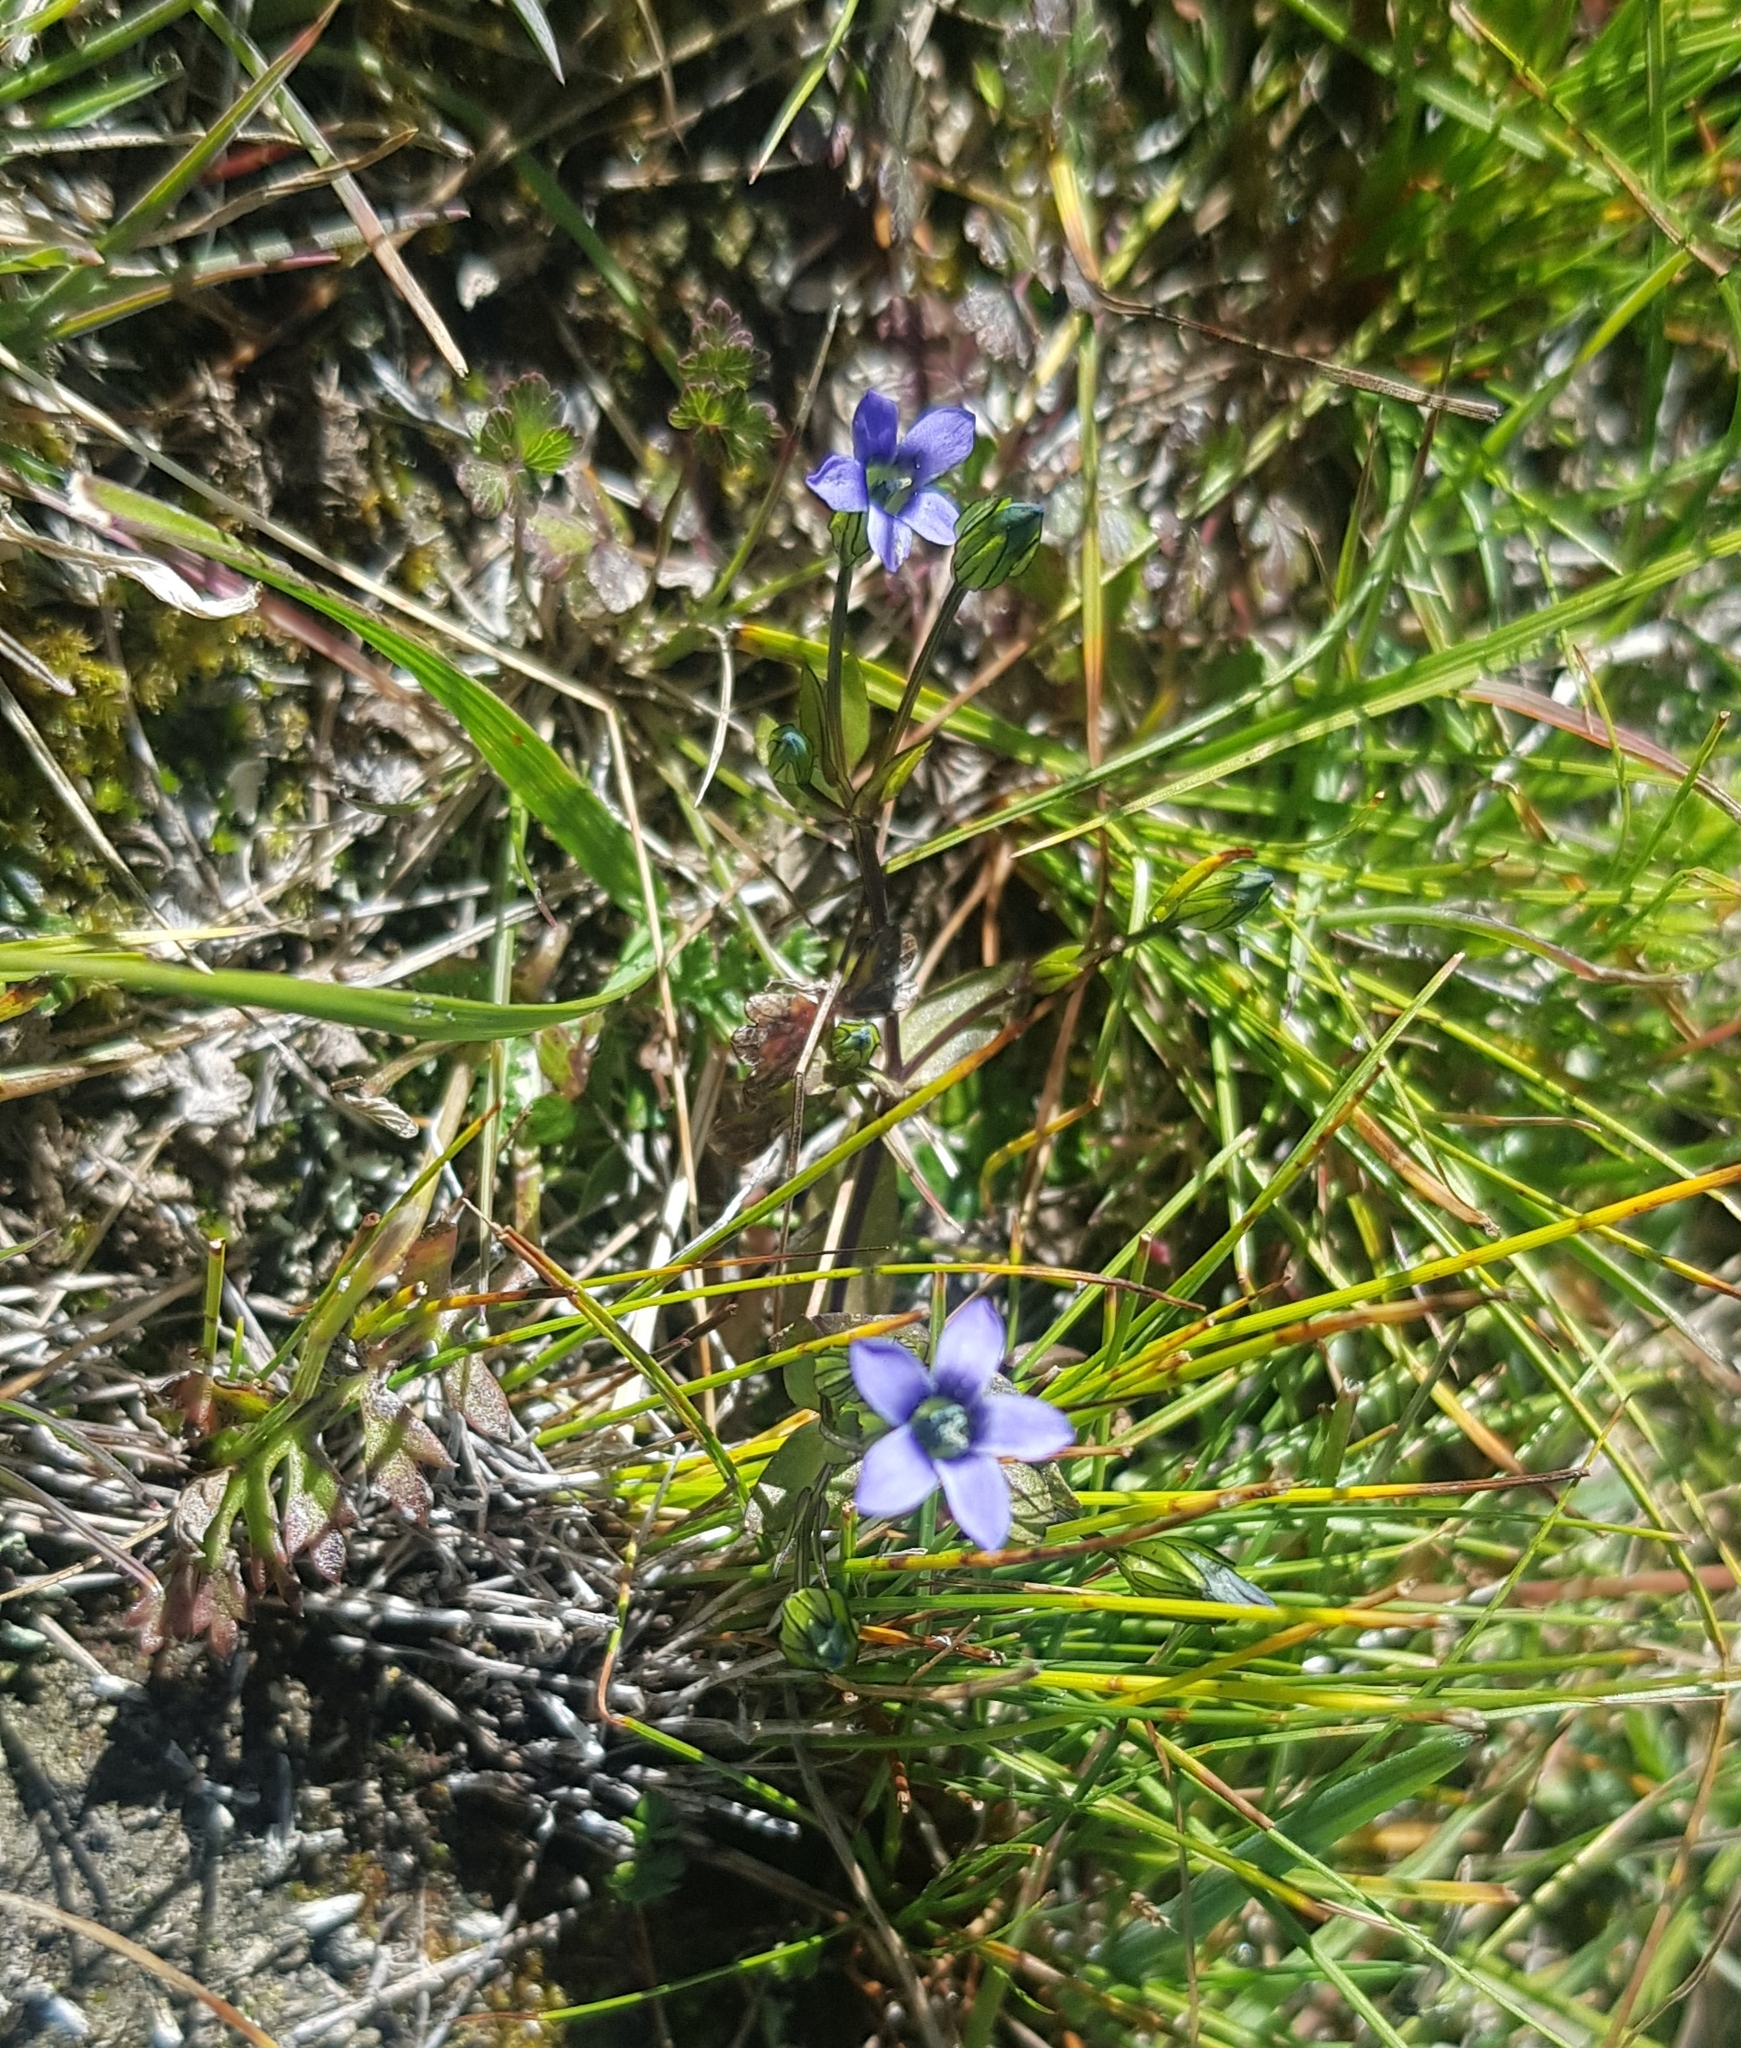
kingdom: Plantae
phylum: Tracheophyta
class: Magnoliopsida
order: Gentianales
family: Gentianaceae
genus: Comastoma
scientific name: Comastoma tenellum
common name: Dane's dwarf gentian
